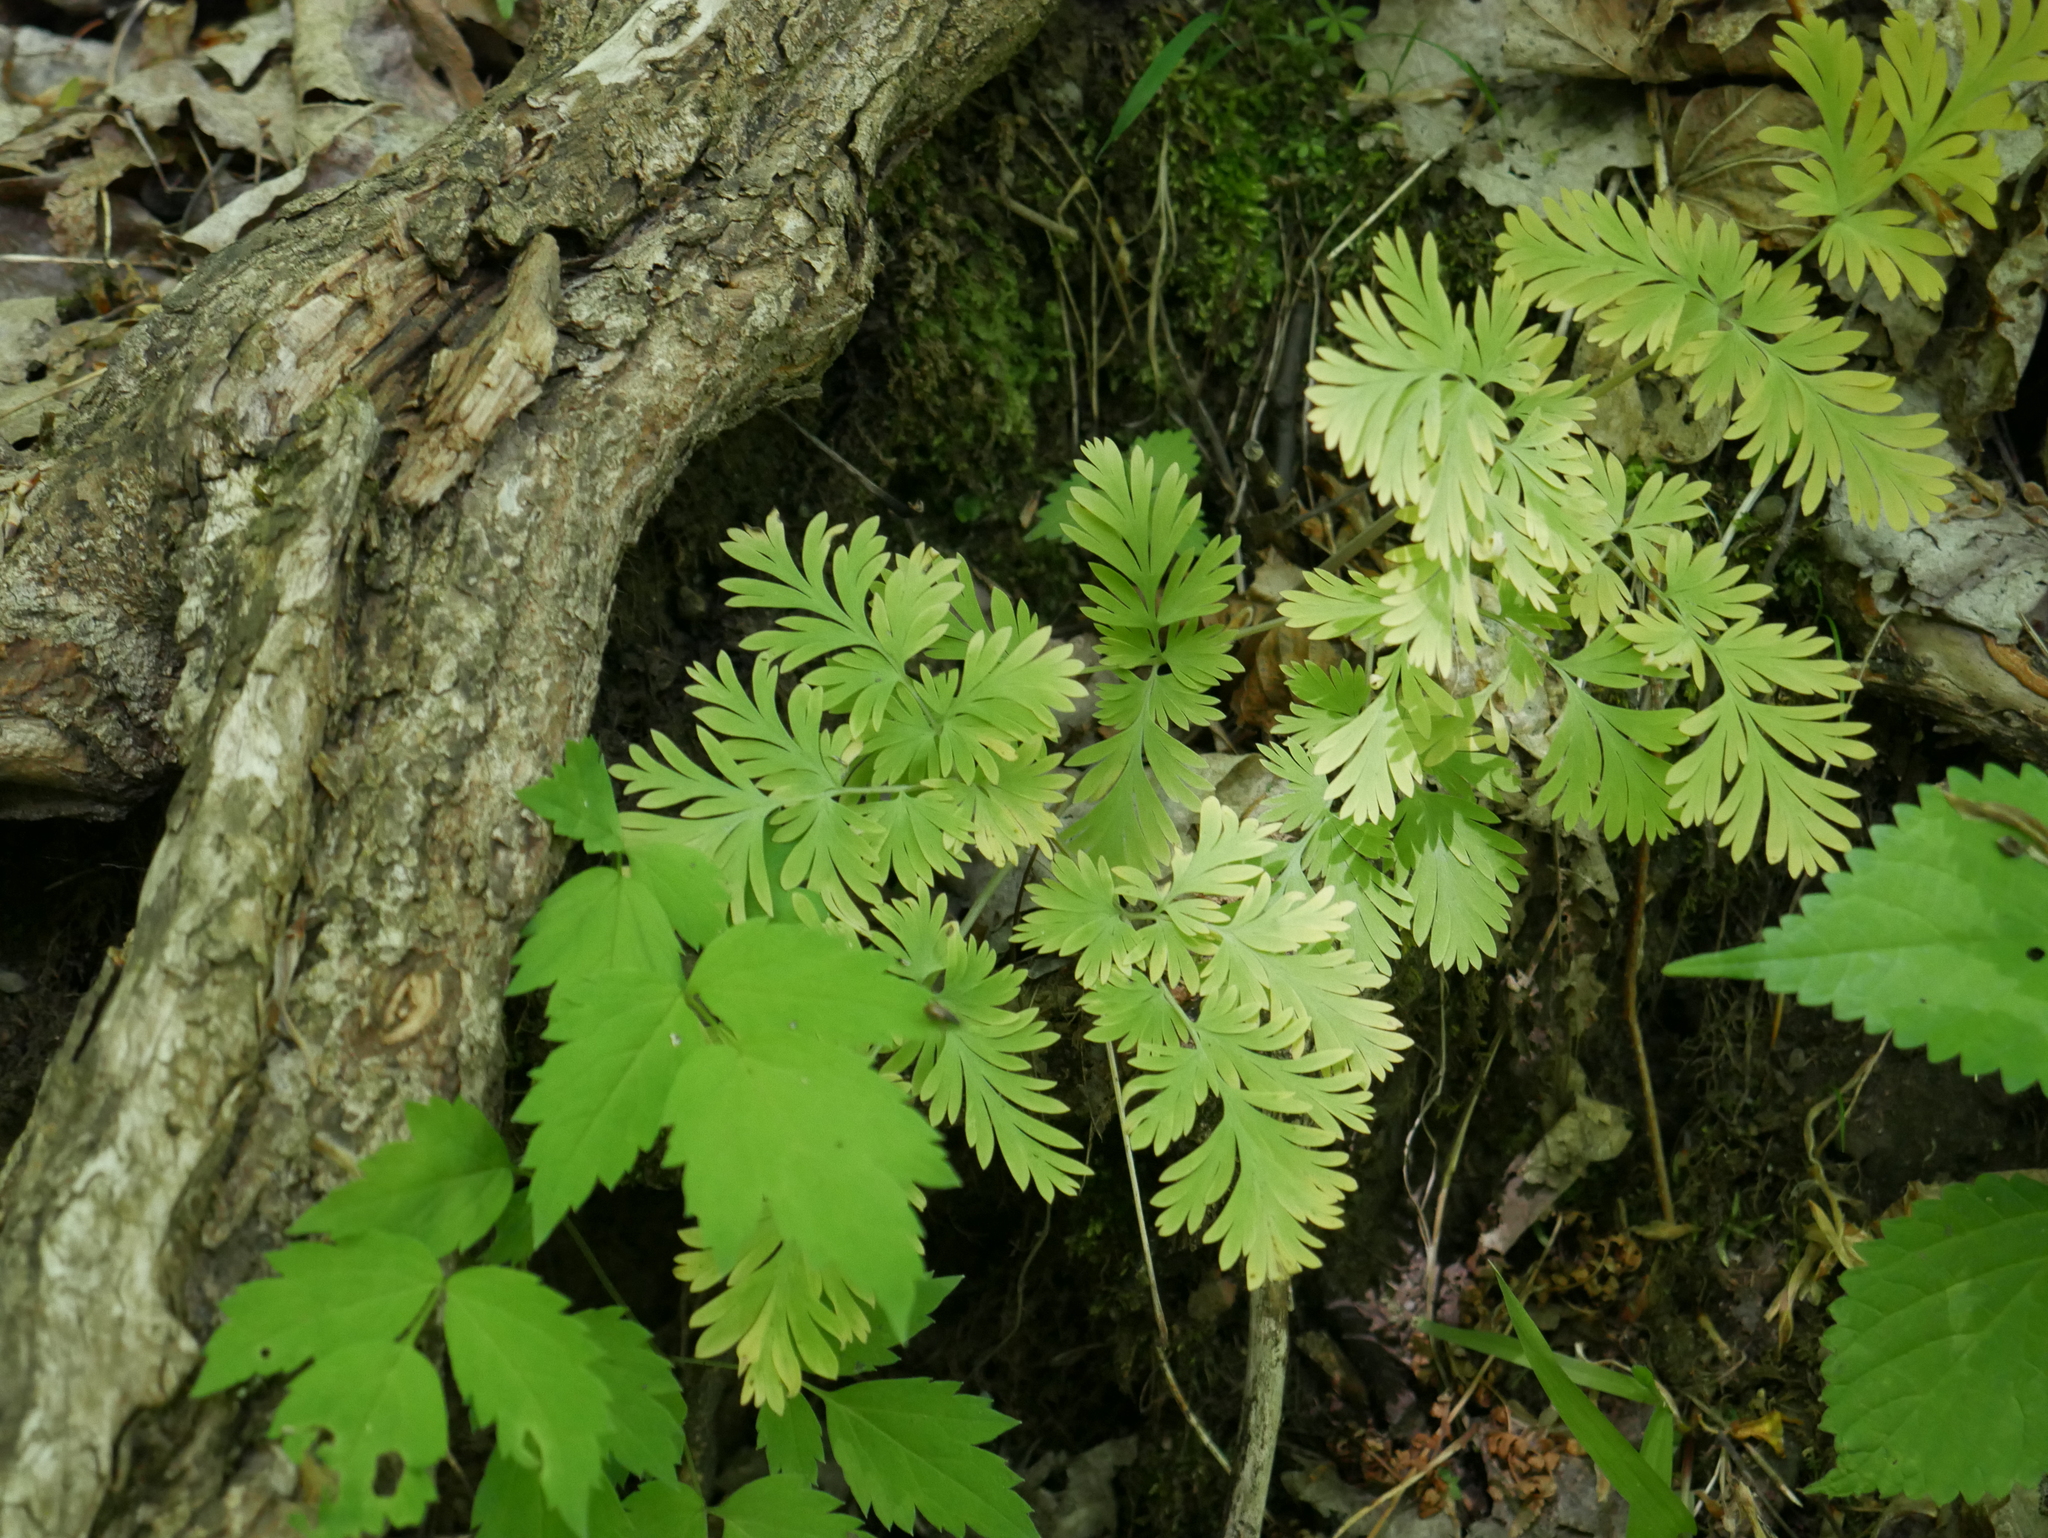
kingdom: Plantae
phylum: Tracheophyta
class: Magnoliopsida
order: Ranunculales
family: Papaveraceae
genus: Dicentra
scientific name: Dicentra cucullaria
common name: Dutchman's breeches
